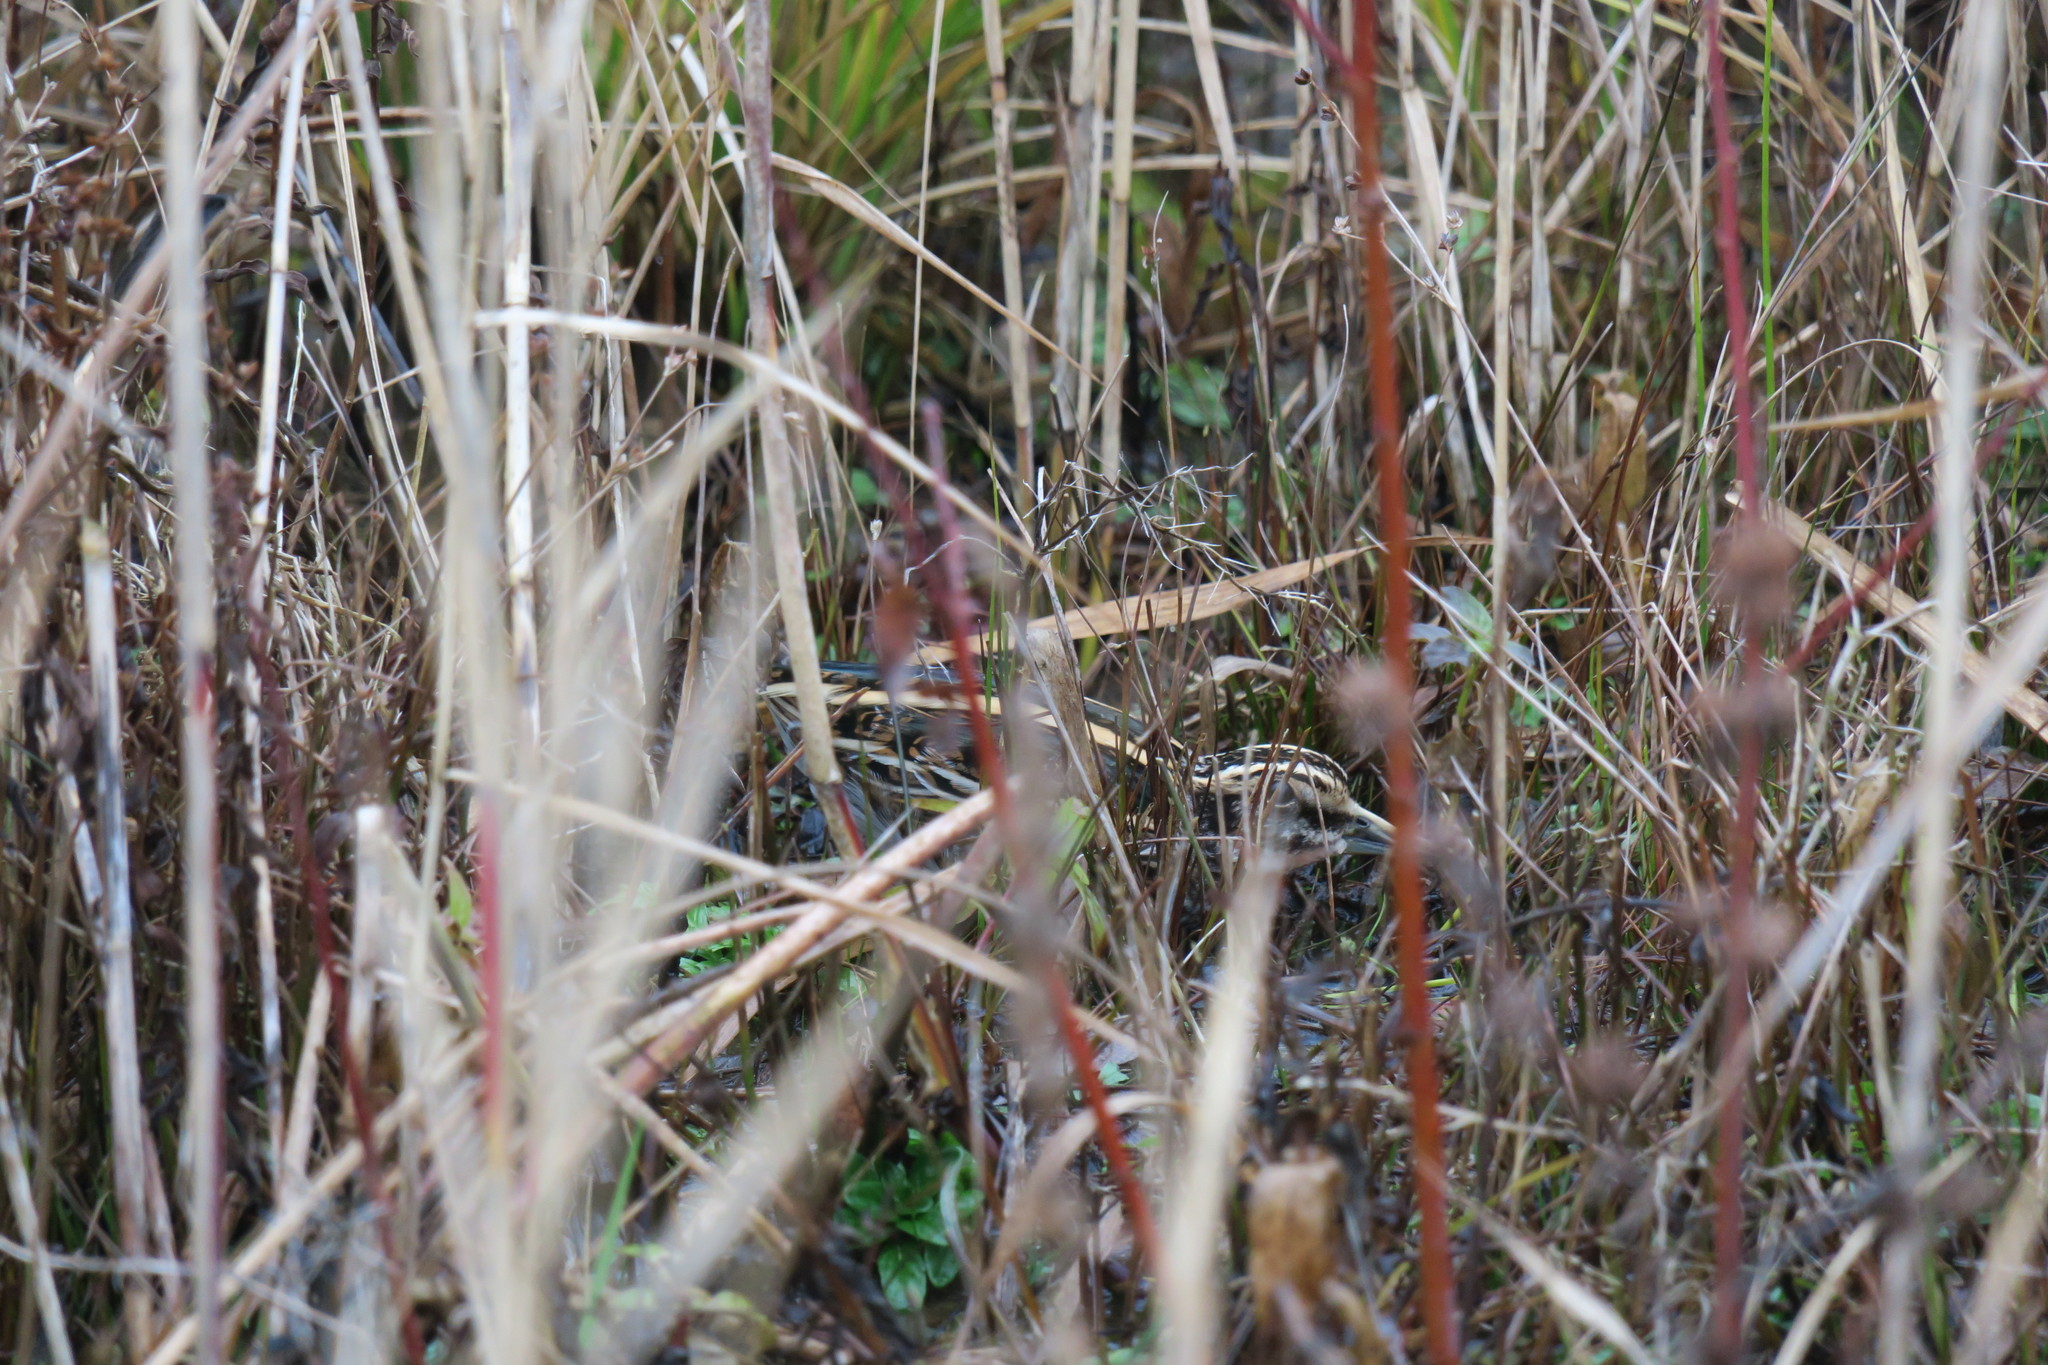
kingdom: Animalia
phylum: Chordata
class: Aves
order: Charadriiformes
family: Scolopacidae
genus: Lymnocryptes
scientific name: Lymnocryptes minimus
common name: Jack snipe
